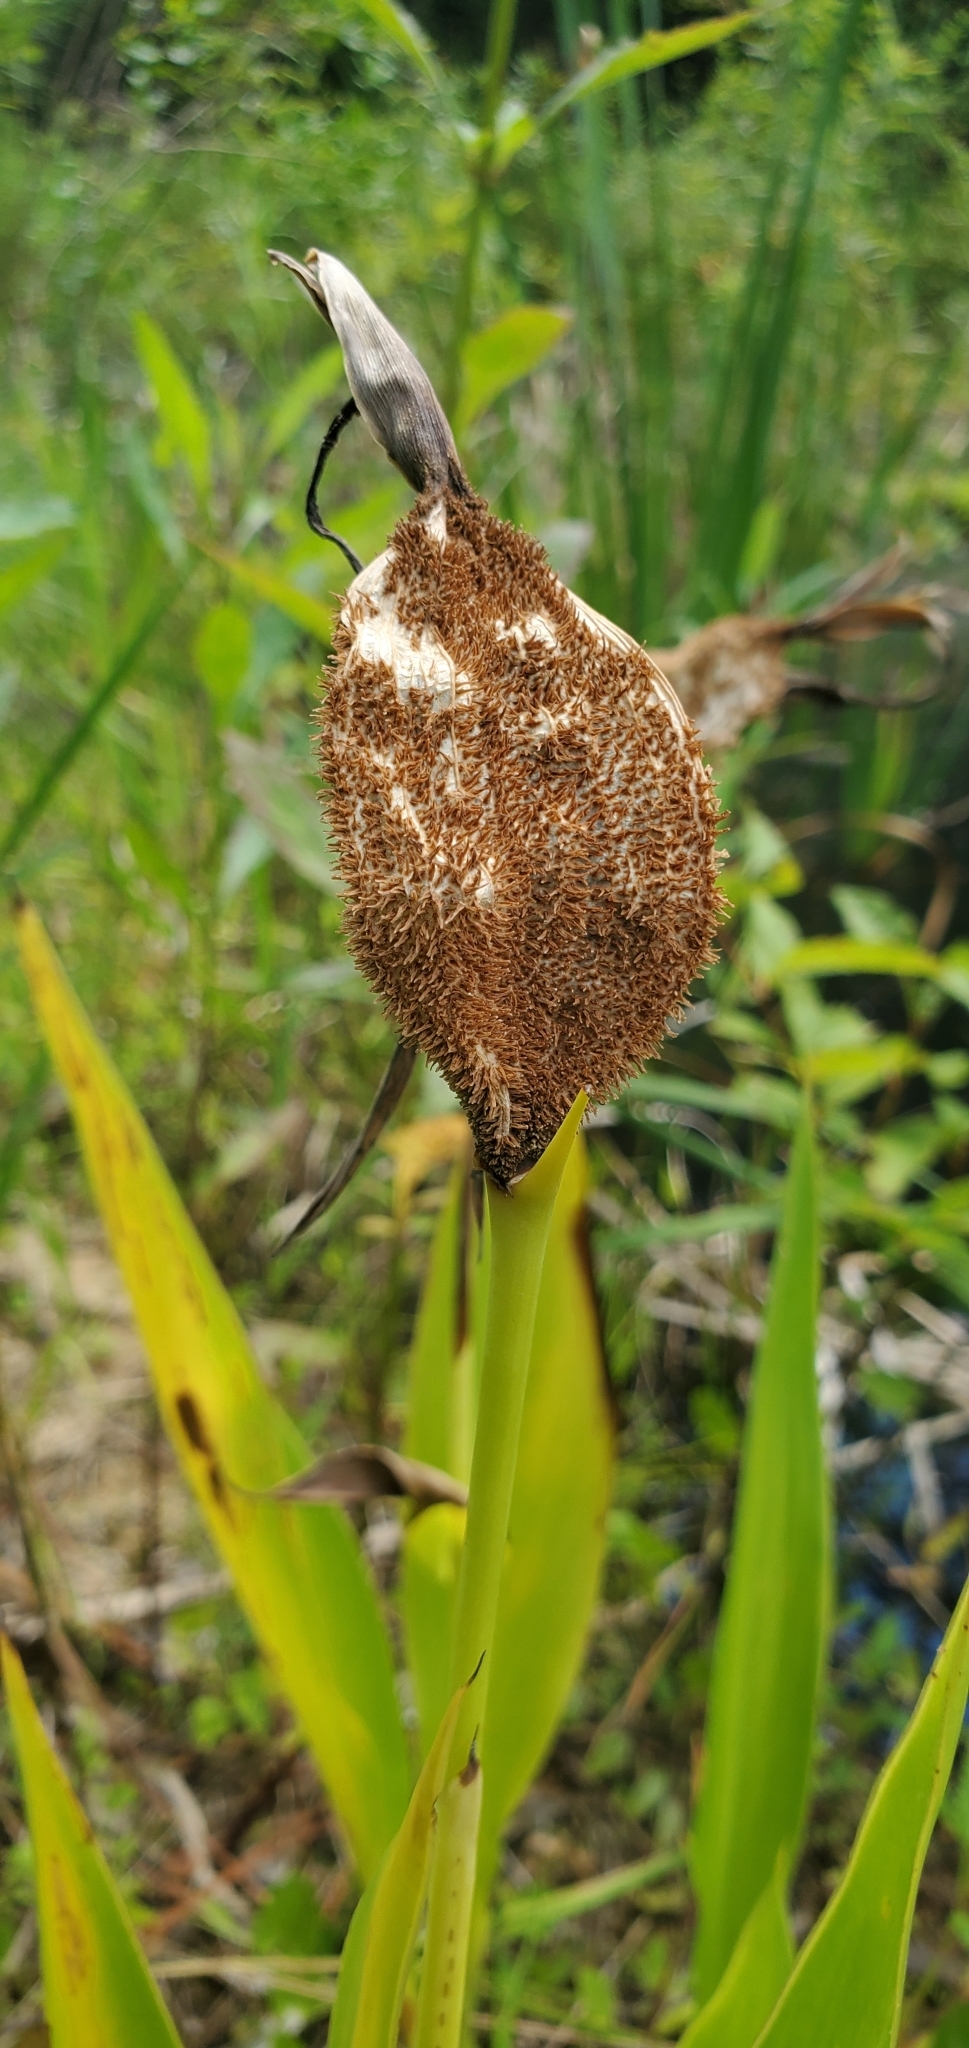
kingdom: Plantae
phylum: Tracheophyta
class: Liliopsida
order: Zingiberales
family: Cannaceae
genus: Canna
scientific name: Canna flaccida
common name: Bandana-of-the-everglades
